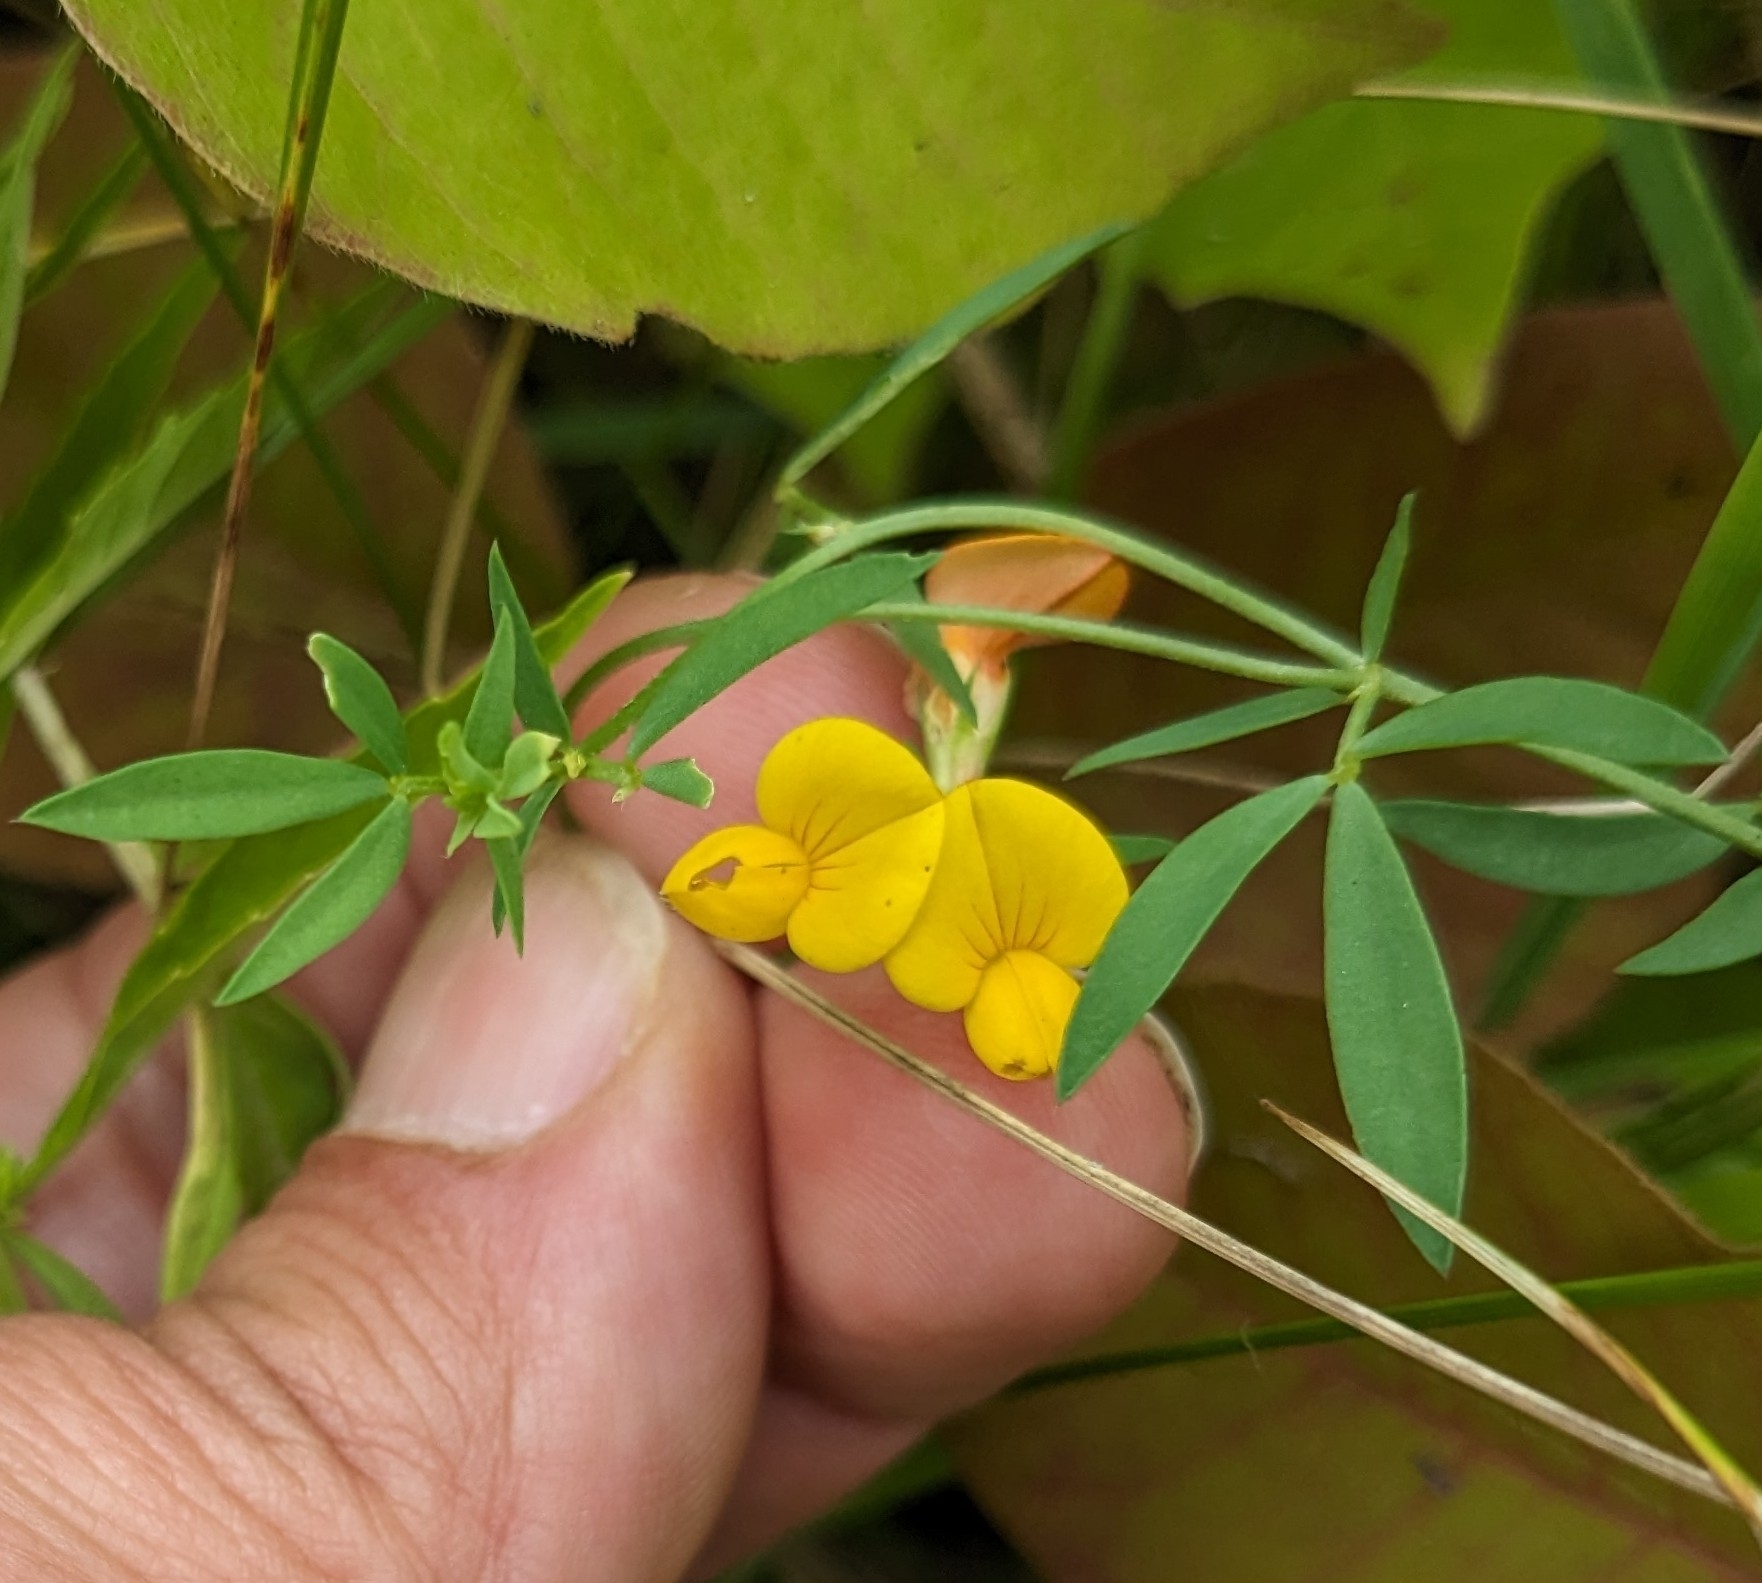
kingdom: Plantae
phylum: Tracheophyta
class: Magnoliopsida
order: Fabales
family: Fabaceae
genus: Lotus
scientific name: Lotus tenuis
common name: Narrow-leaved bird's-foot-trefoil
